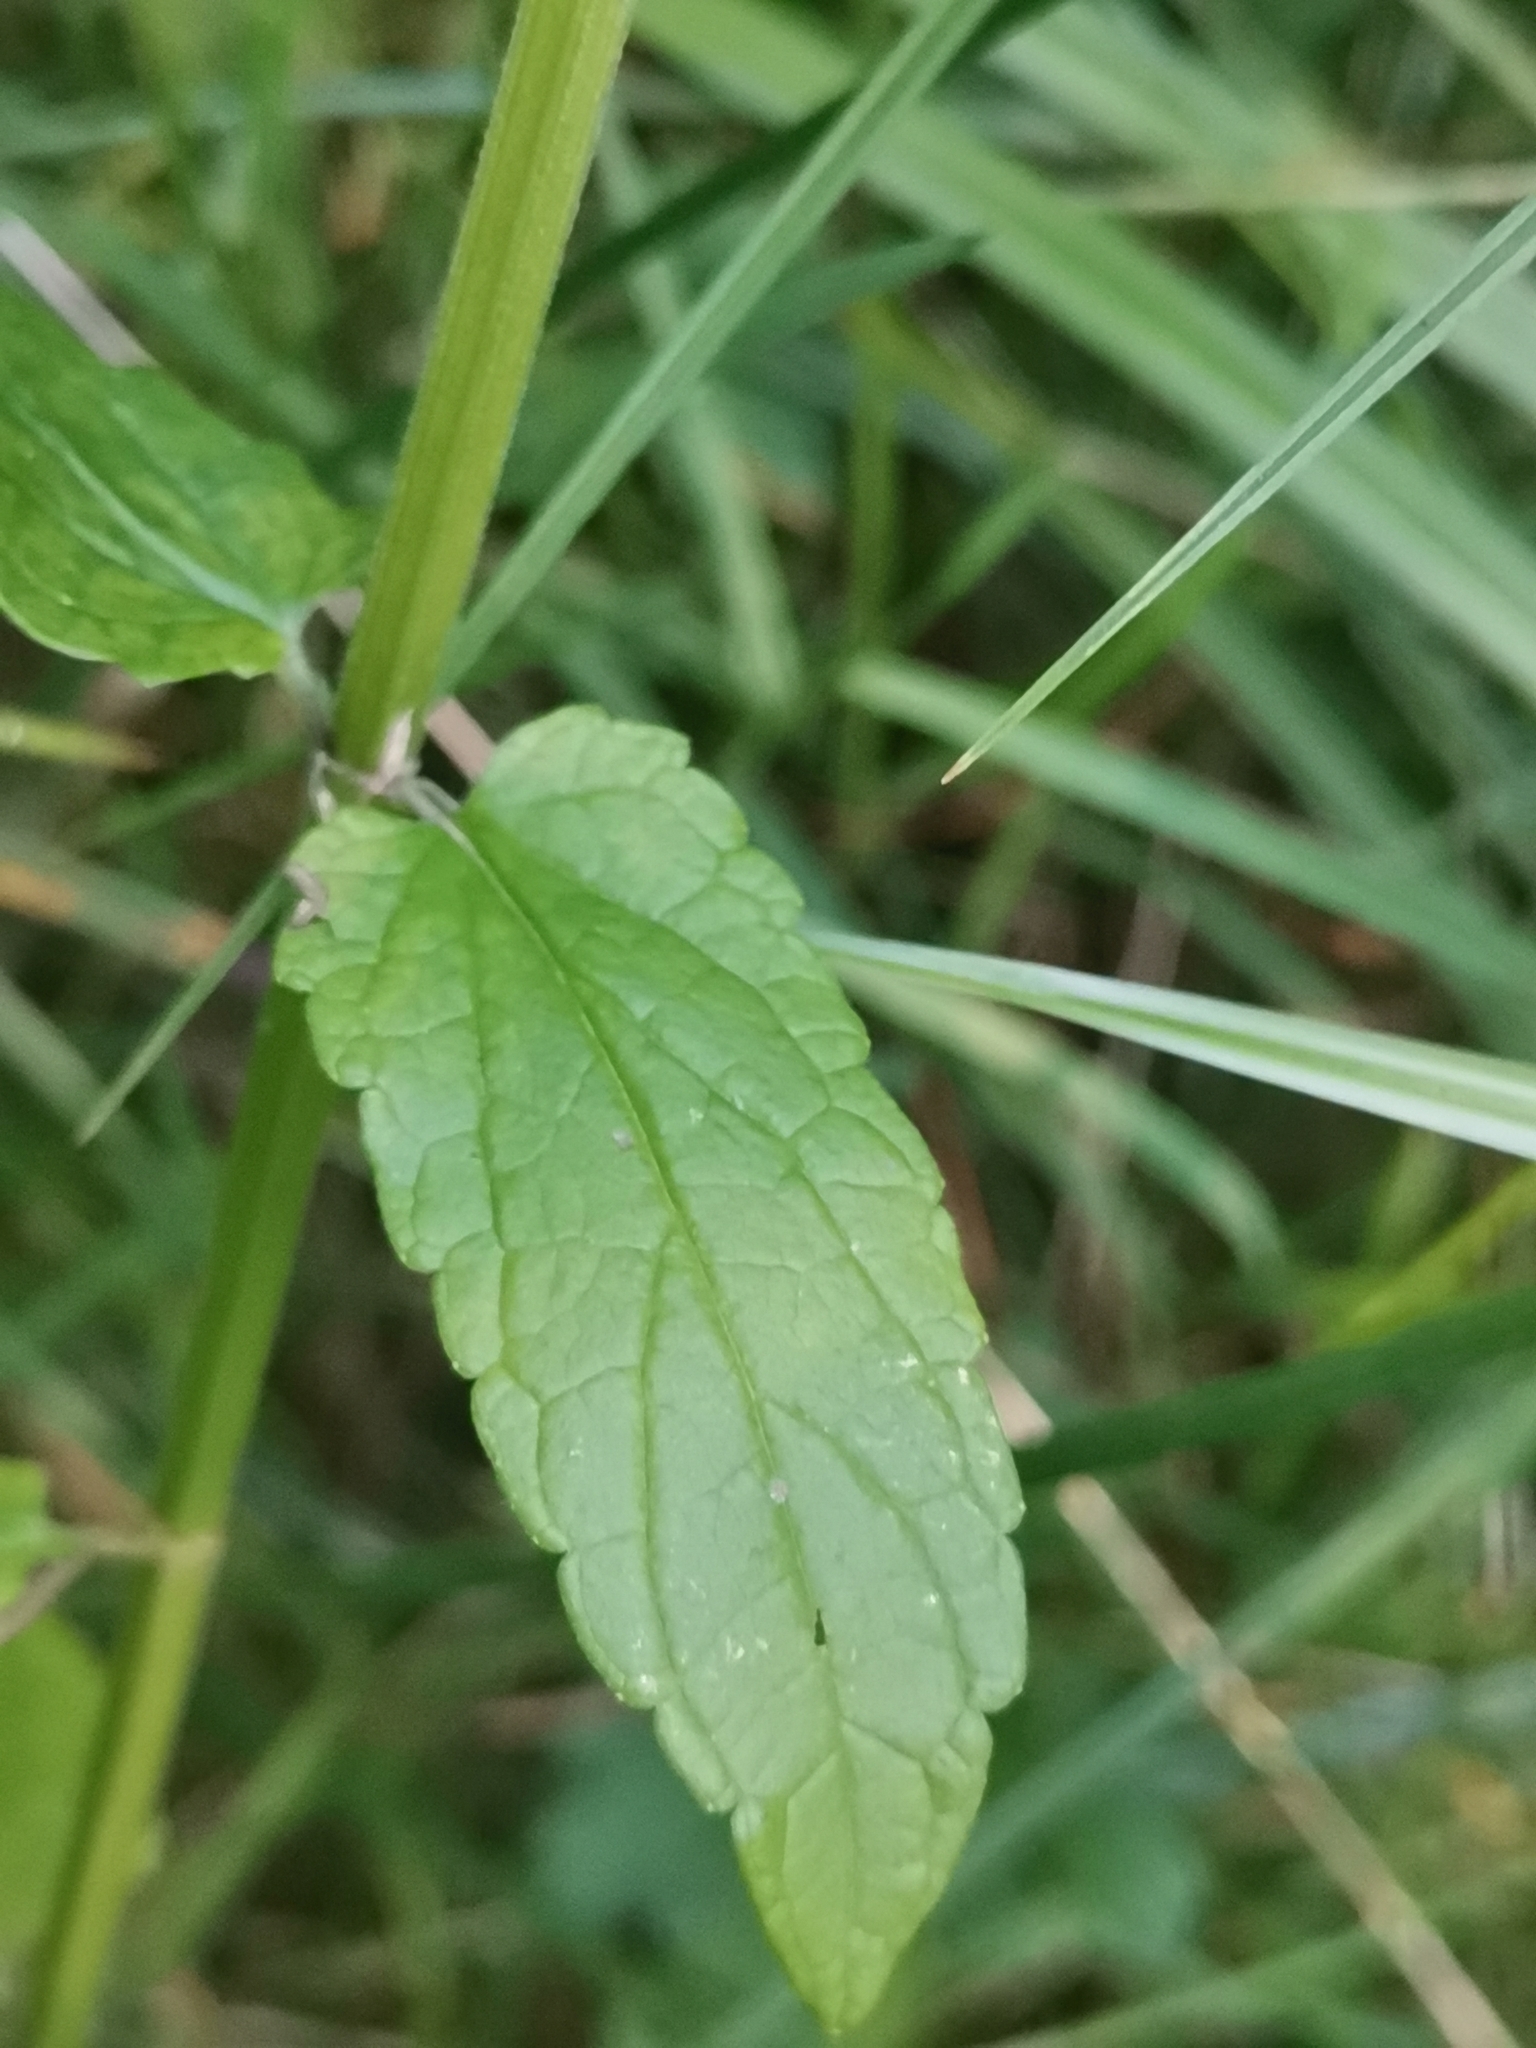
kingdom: Plantae
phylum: Tracheophyta
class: Magnoliopsida
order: Lamiales
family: Lamiaceae
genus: Scutellaria
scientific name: Scutellaria galericulata
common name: Skullcap
